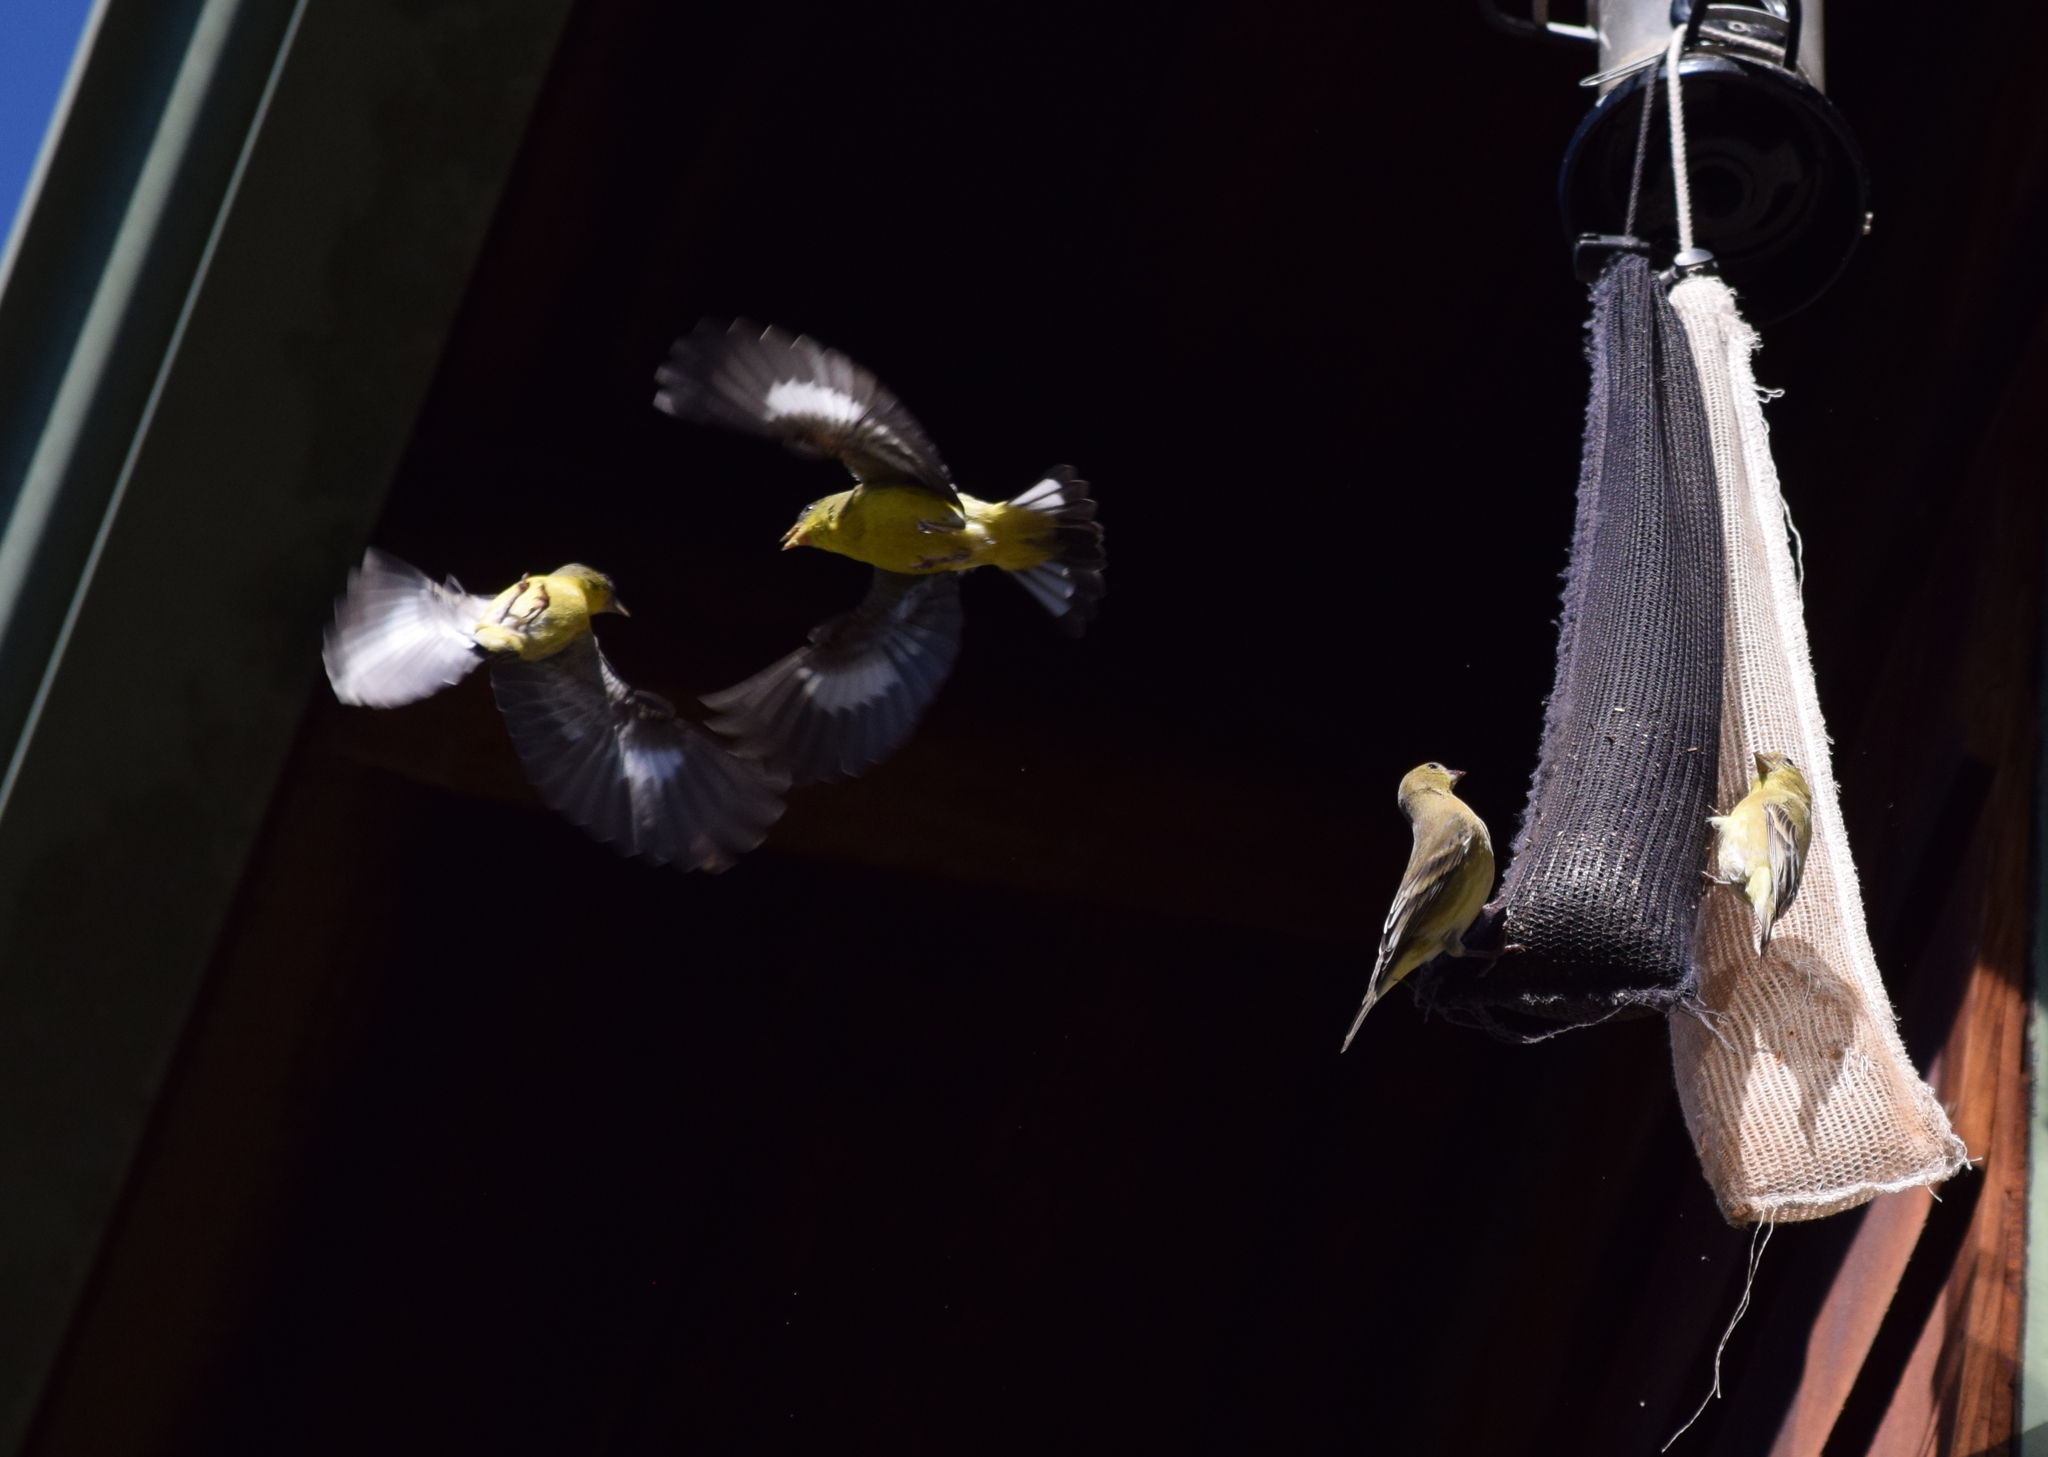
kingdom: Animalia
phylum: Chordata
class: Aves
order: Passeriformes
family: Fringillidae
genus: Spinus
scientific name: Spinus psaltria
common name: Lesser goldfinch
